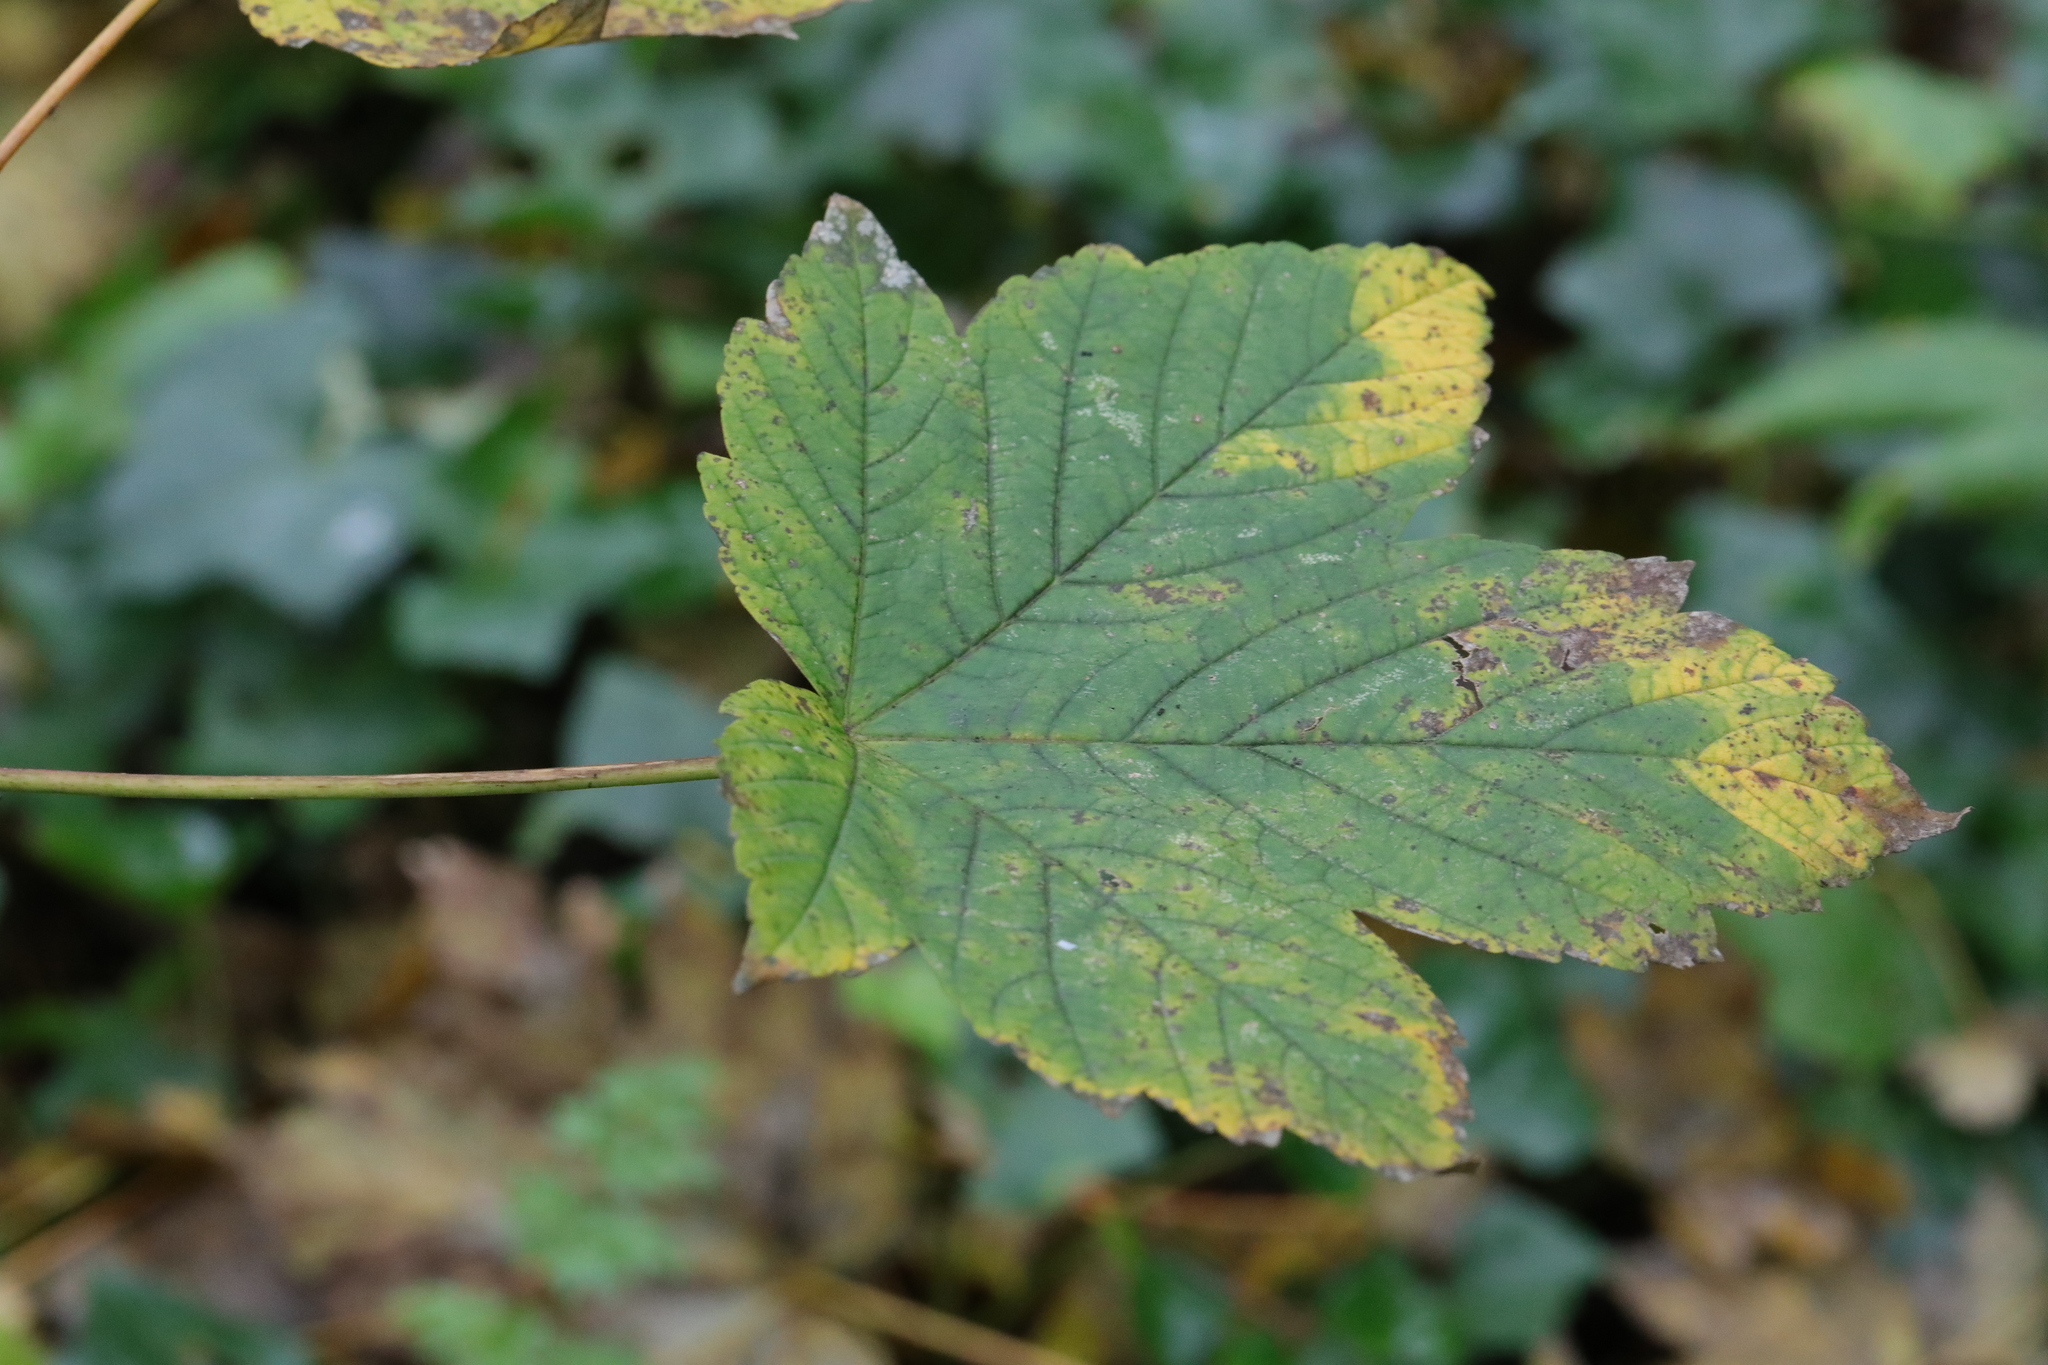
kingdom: Plantae
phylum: Tracheophyta
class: Magnoliopsida
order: Sapindales
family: Sapindaceae
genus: Acer
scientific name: Acer pseudoplatanus
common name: Sycamore
